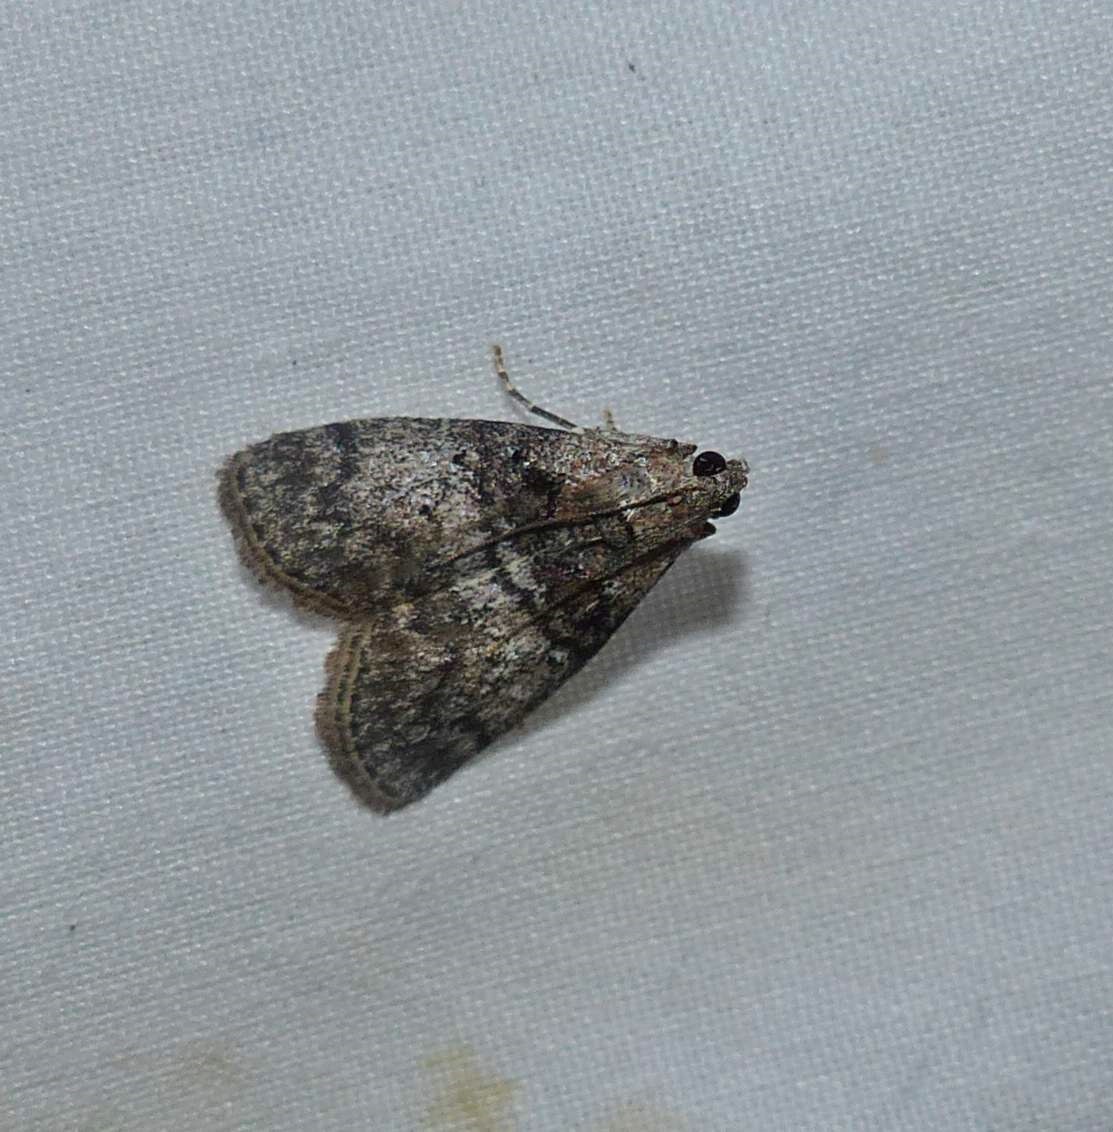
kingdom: Animalia
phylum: Arthropoda
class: Insecta
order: Lepidoptera
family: Pyralidae
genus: Pococera
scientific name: Pococera asperatella
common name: Maple webworm moth
